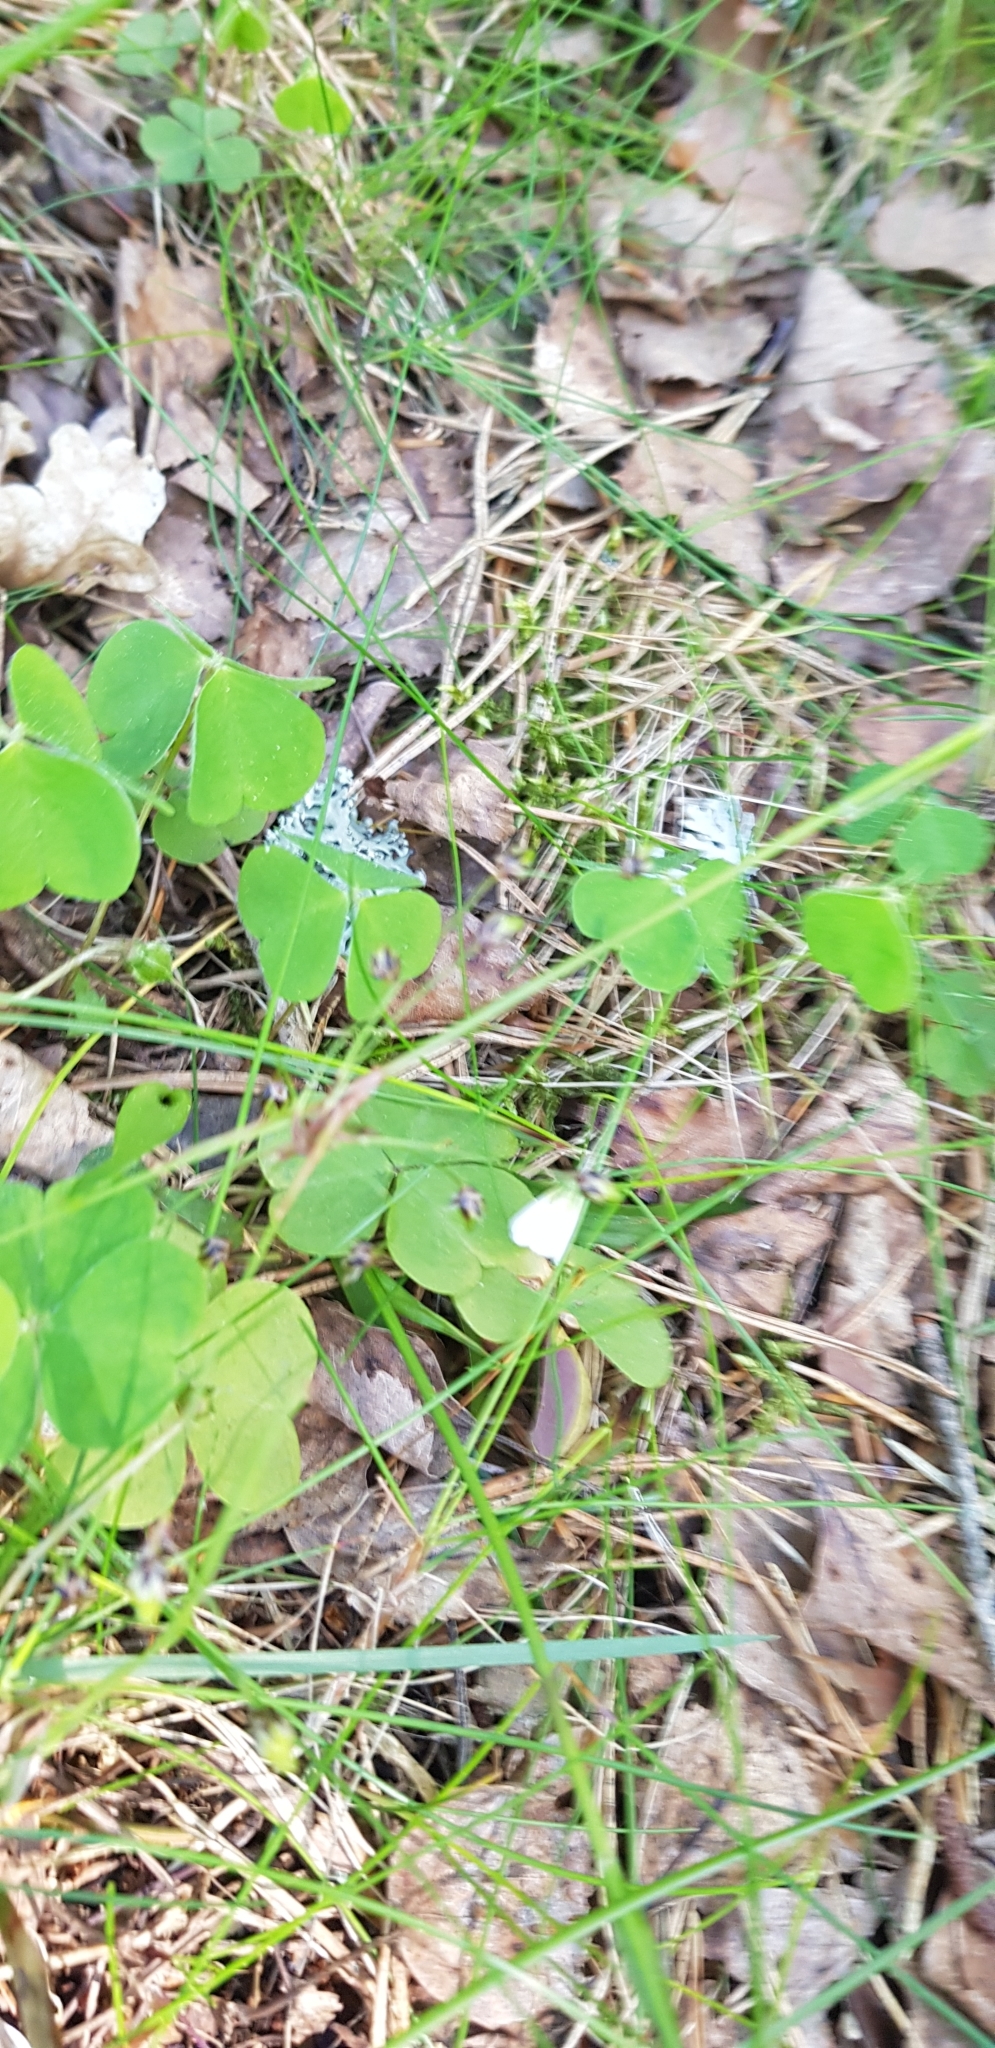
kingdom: Plantae
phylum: Tracheophyta
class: Magnoliopsida
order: Oxalidales
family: Oxalidaceae
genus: Oxalis
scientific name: Oxalis acetosella
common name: Wood-sorrel
